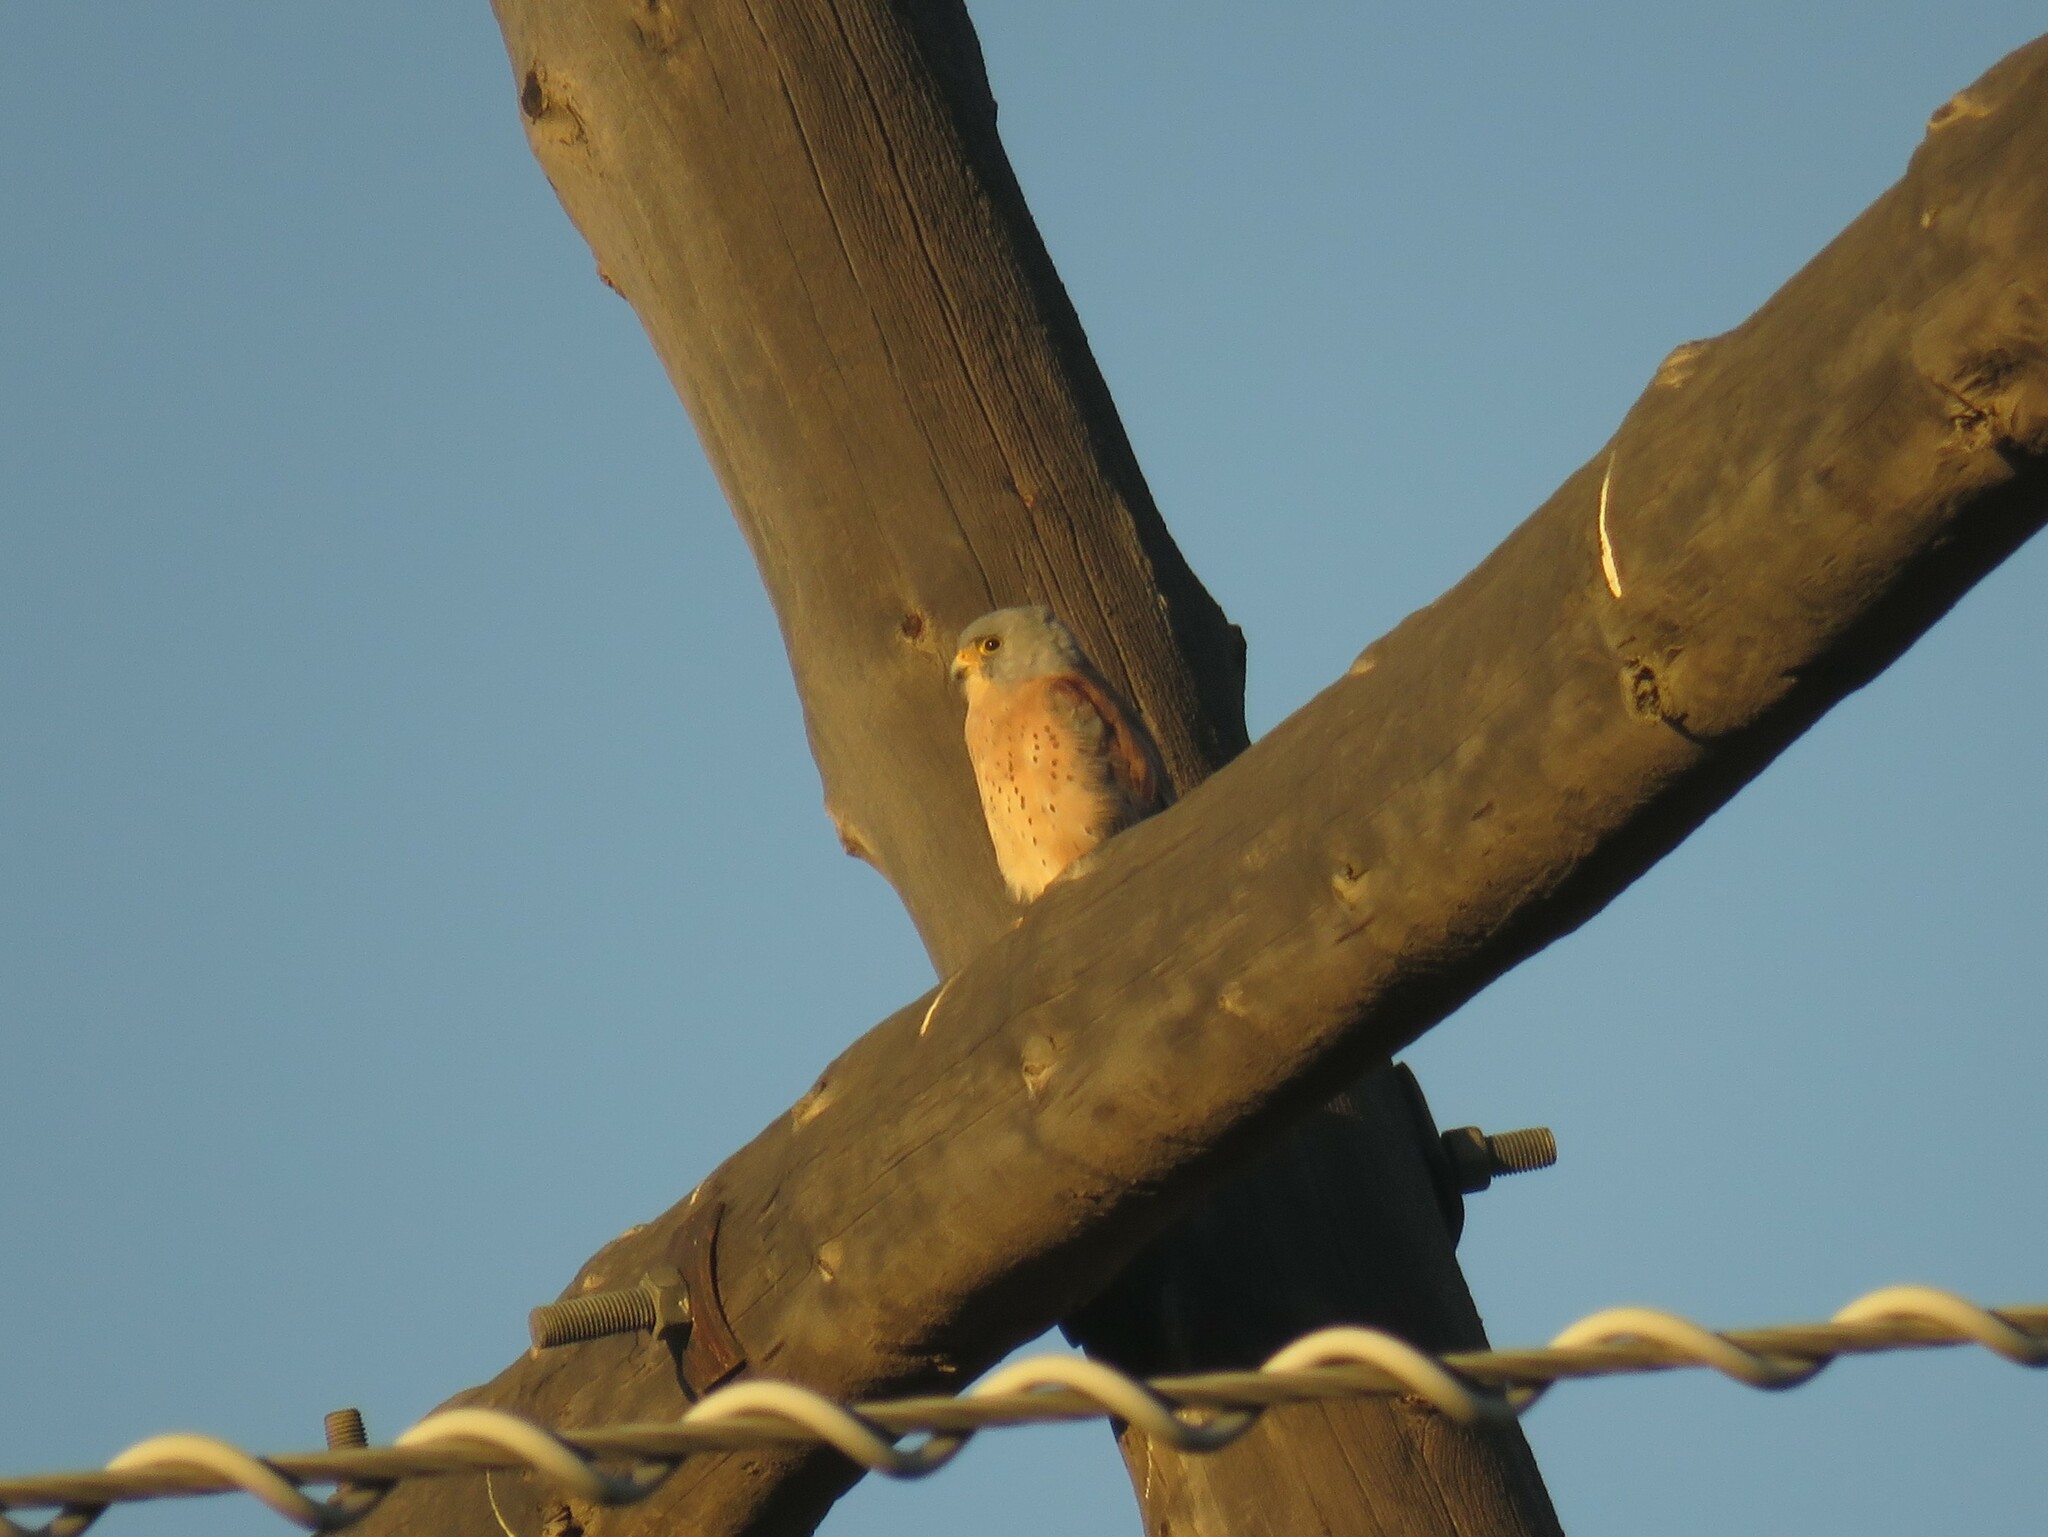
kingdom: Animalia
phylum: Chordata
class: Aves
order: Falconiformes
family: Falconidae
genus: Falco
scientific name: Falco naumanni
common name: Lesser kestrel
